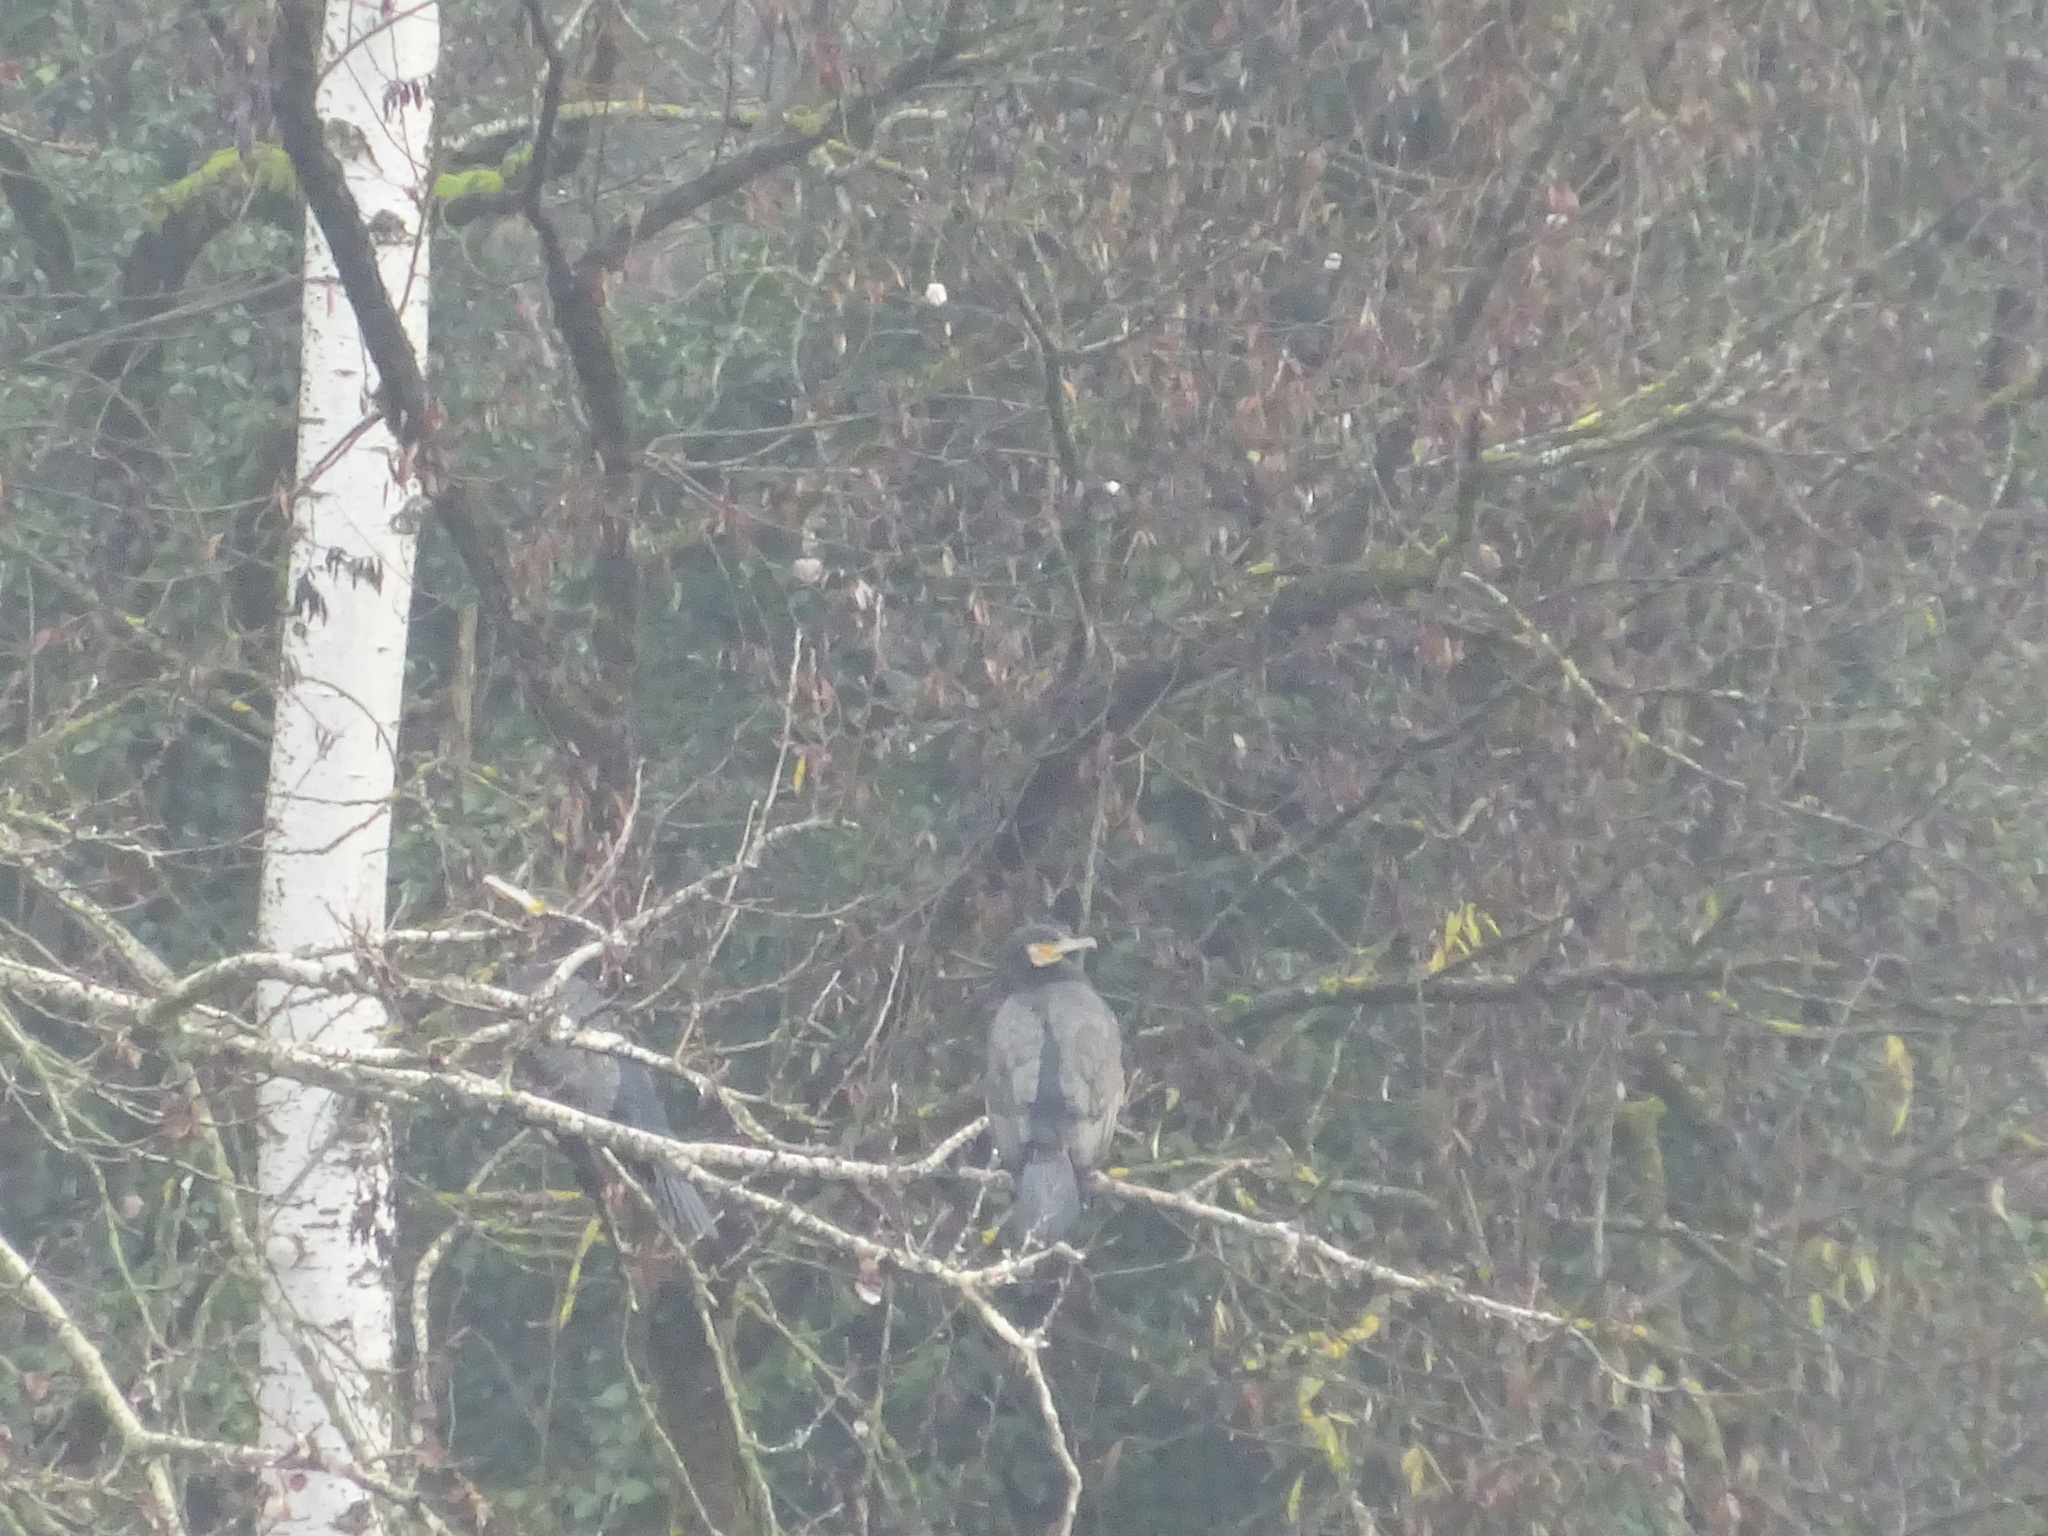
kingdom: Animalia
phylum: Chordata
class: Aves
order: Suliformes
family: Phalacrocoracidae
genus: Phalacrocorax
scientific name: Phalacrocorax carbo
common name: Great cormorant
